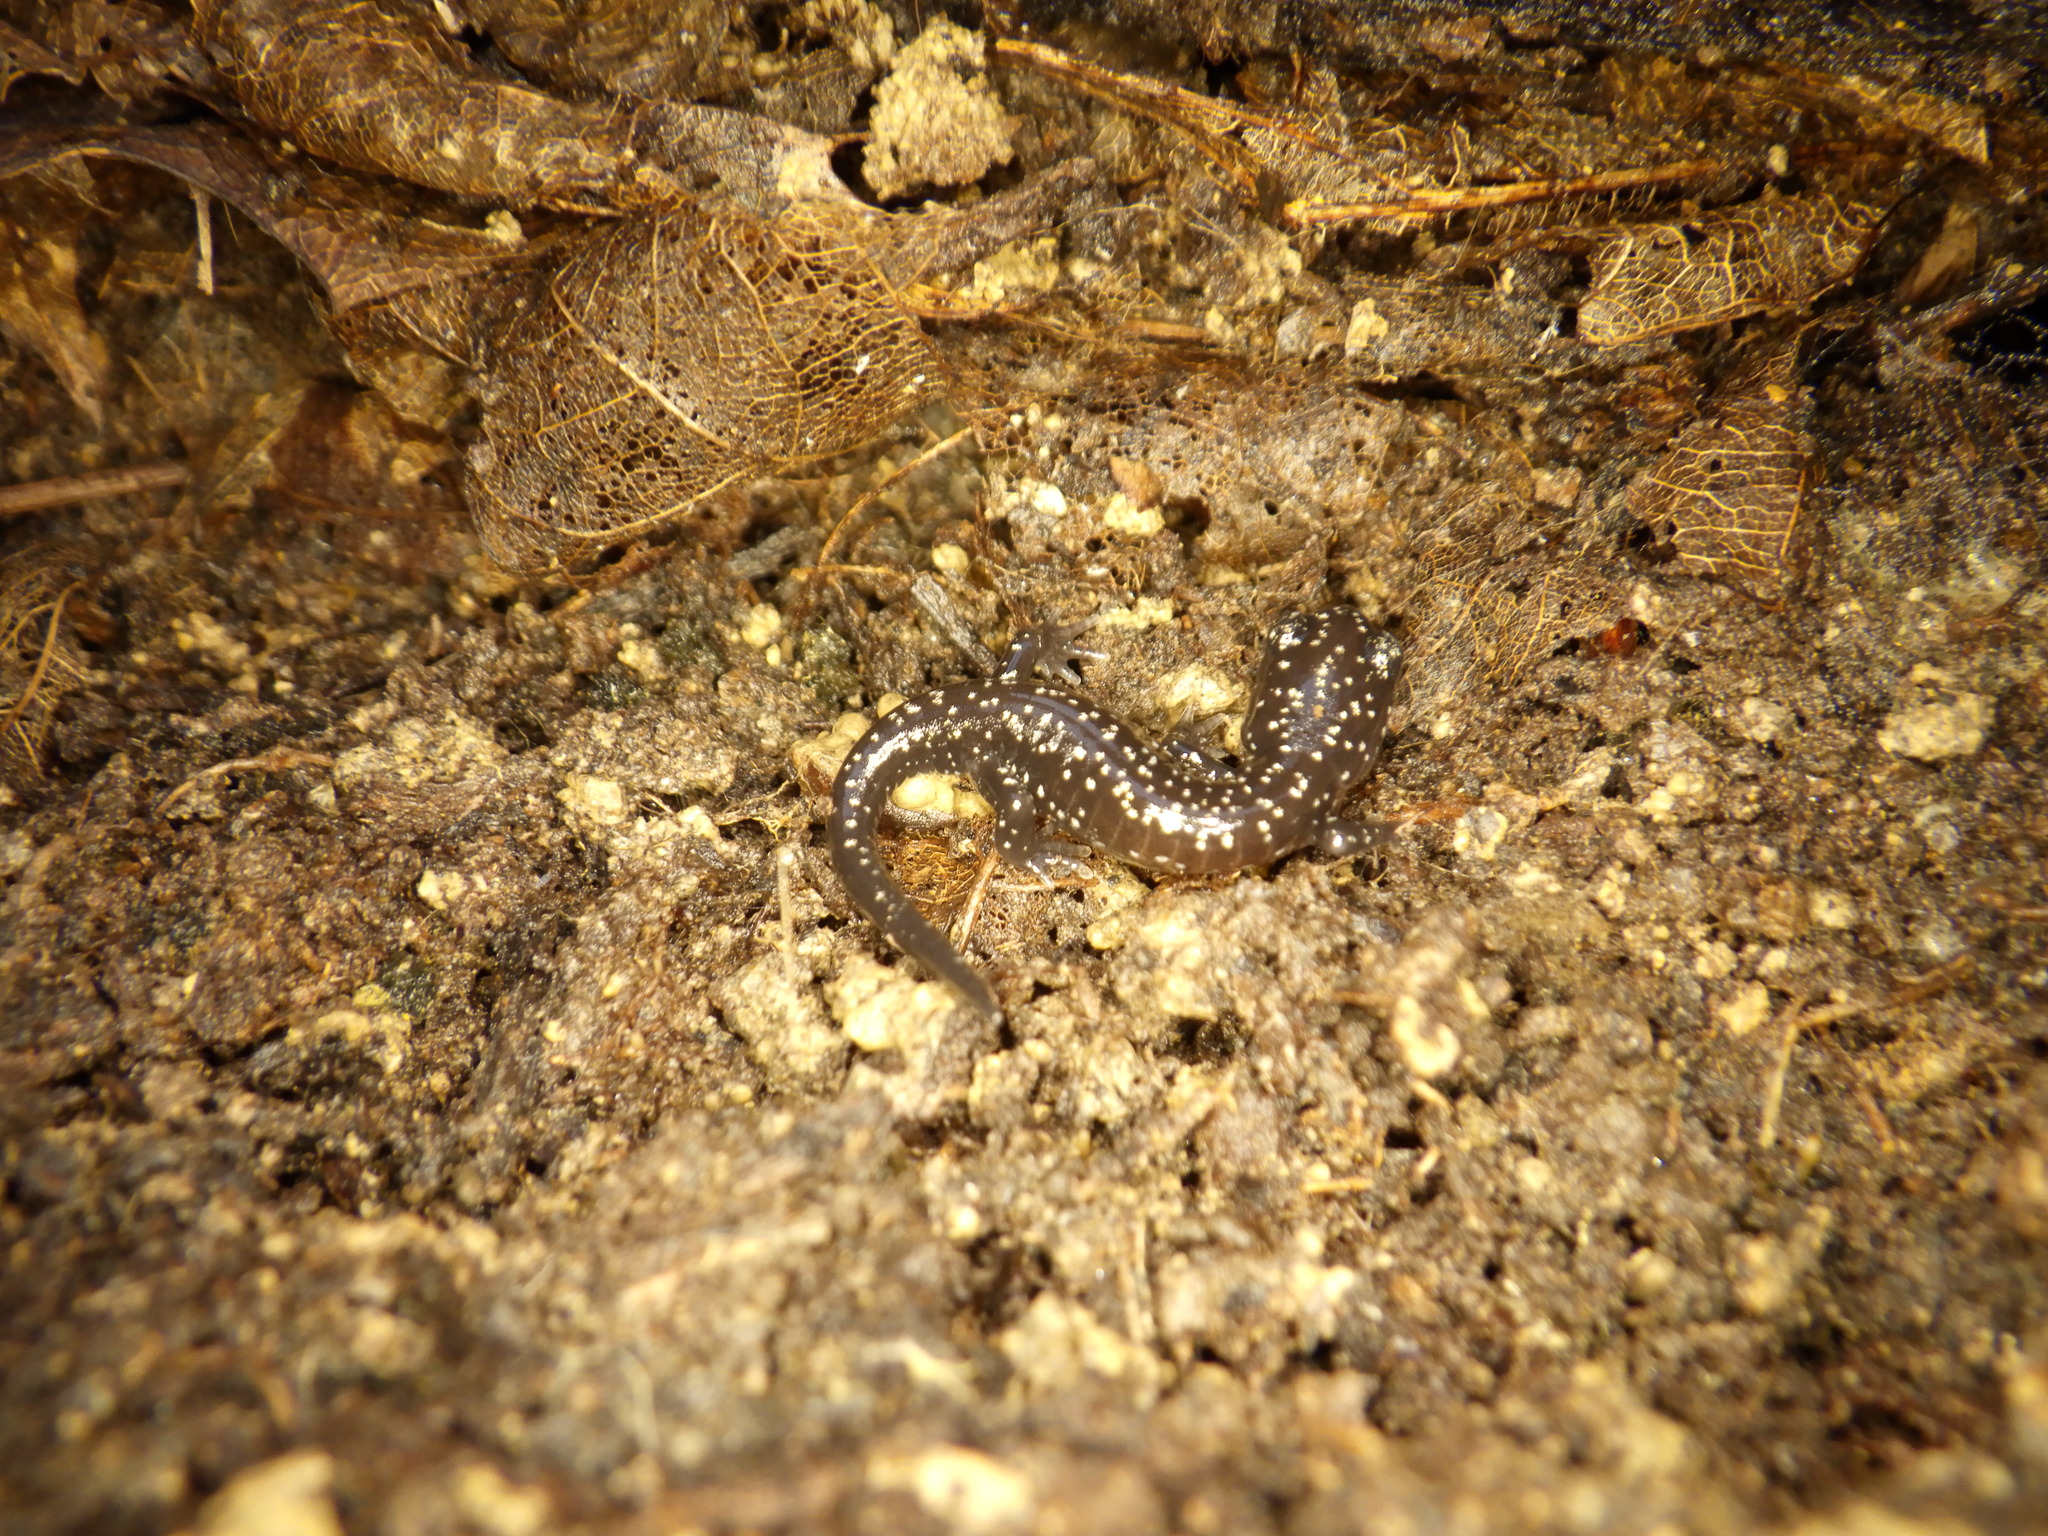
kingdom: Animalia
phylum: Chordata
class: Amphibia
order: Caudata
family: Plethodontidae
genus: Plethodon
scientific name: Plethodon glutinosus
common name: Northern slimy salamander
